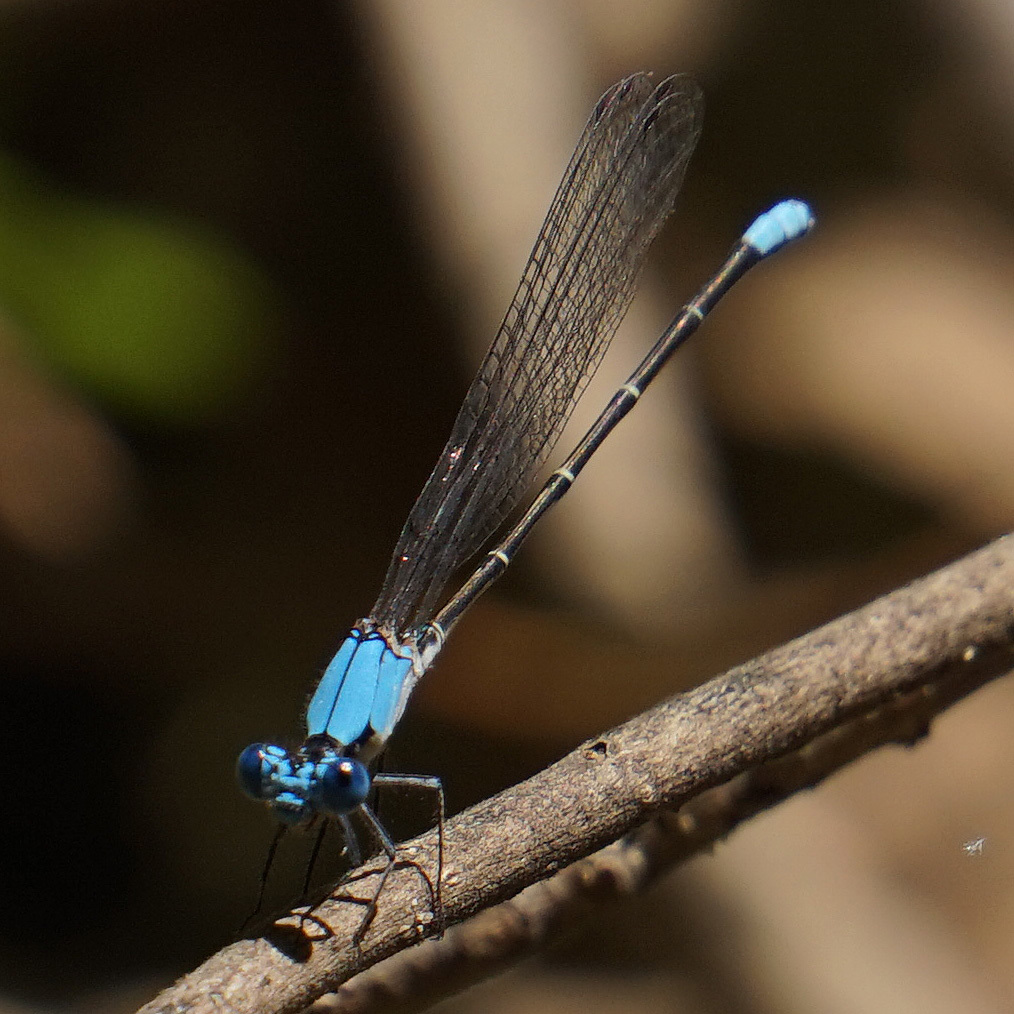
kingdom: Animalia
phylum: Arthropoda
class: Insecta
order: Odonata
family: Coenagrionidae
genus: Argia
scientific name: Argia apicalis
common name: Blue-fronted dancer
